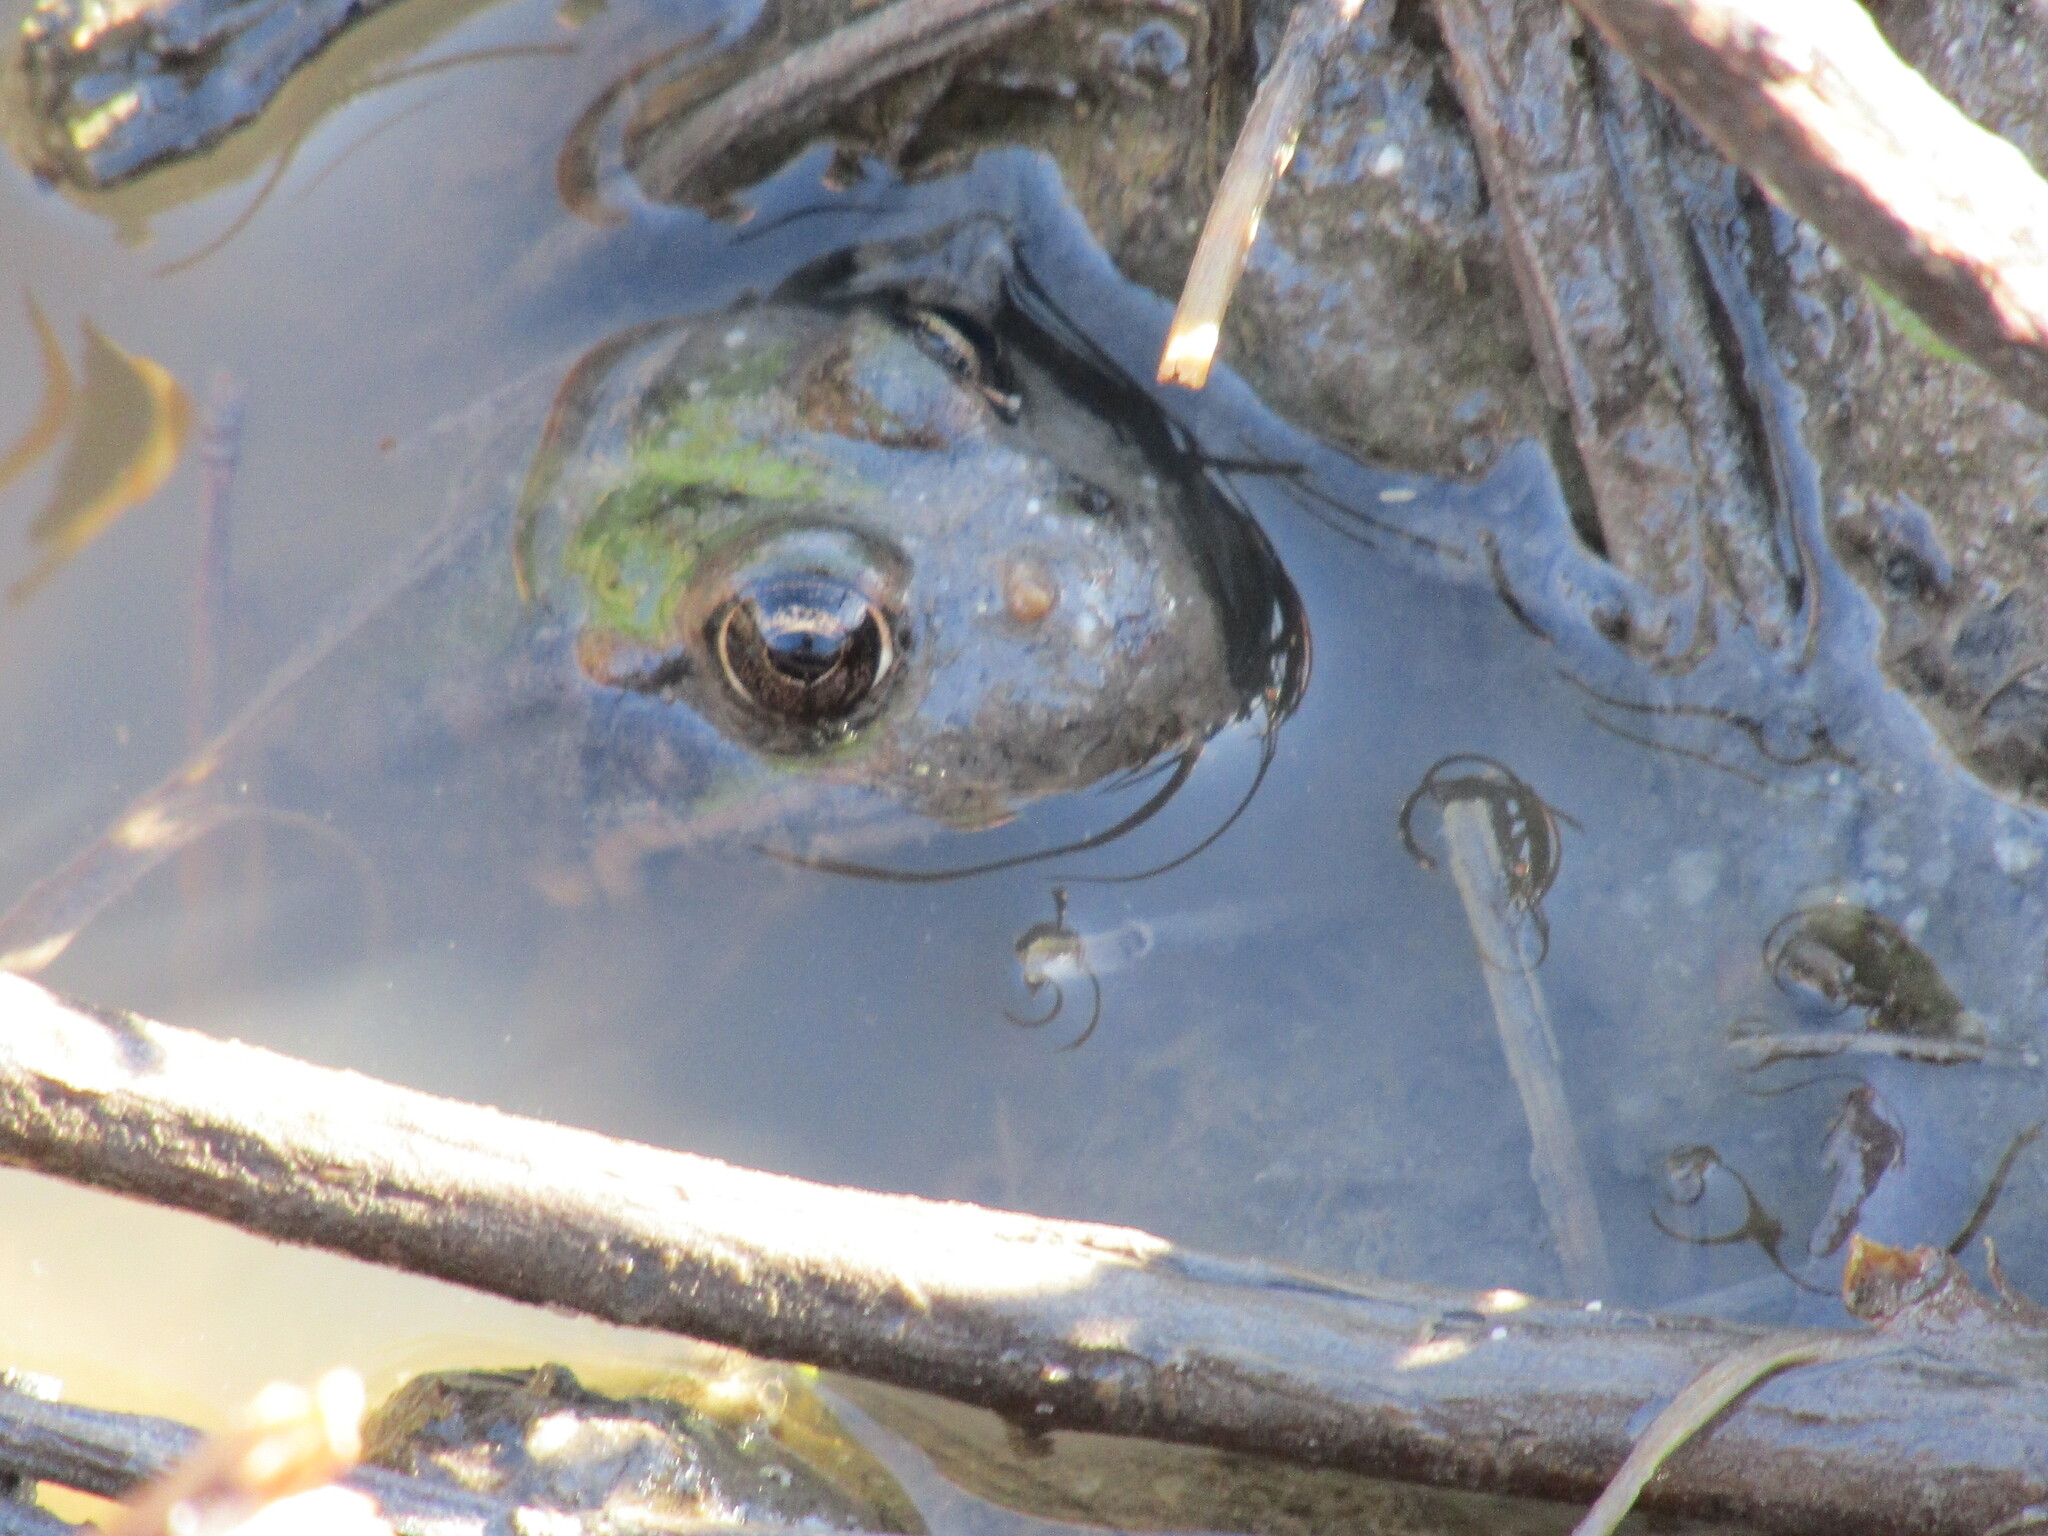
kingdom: Animalia
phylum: Chordata
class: Amphibia
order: Anura
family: Ranidae
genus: Pelophylax
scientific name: Pelophylax ridibundus
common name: Marsh frog
